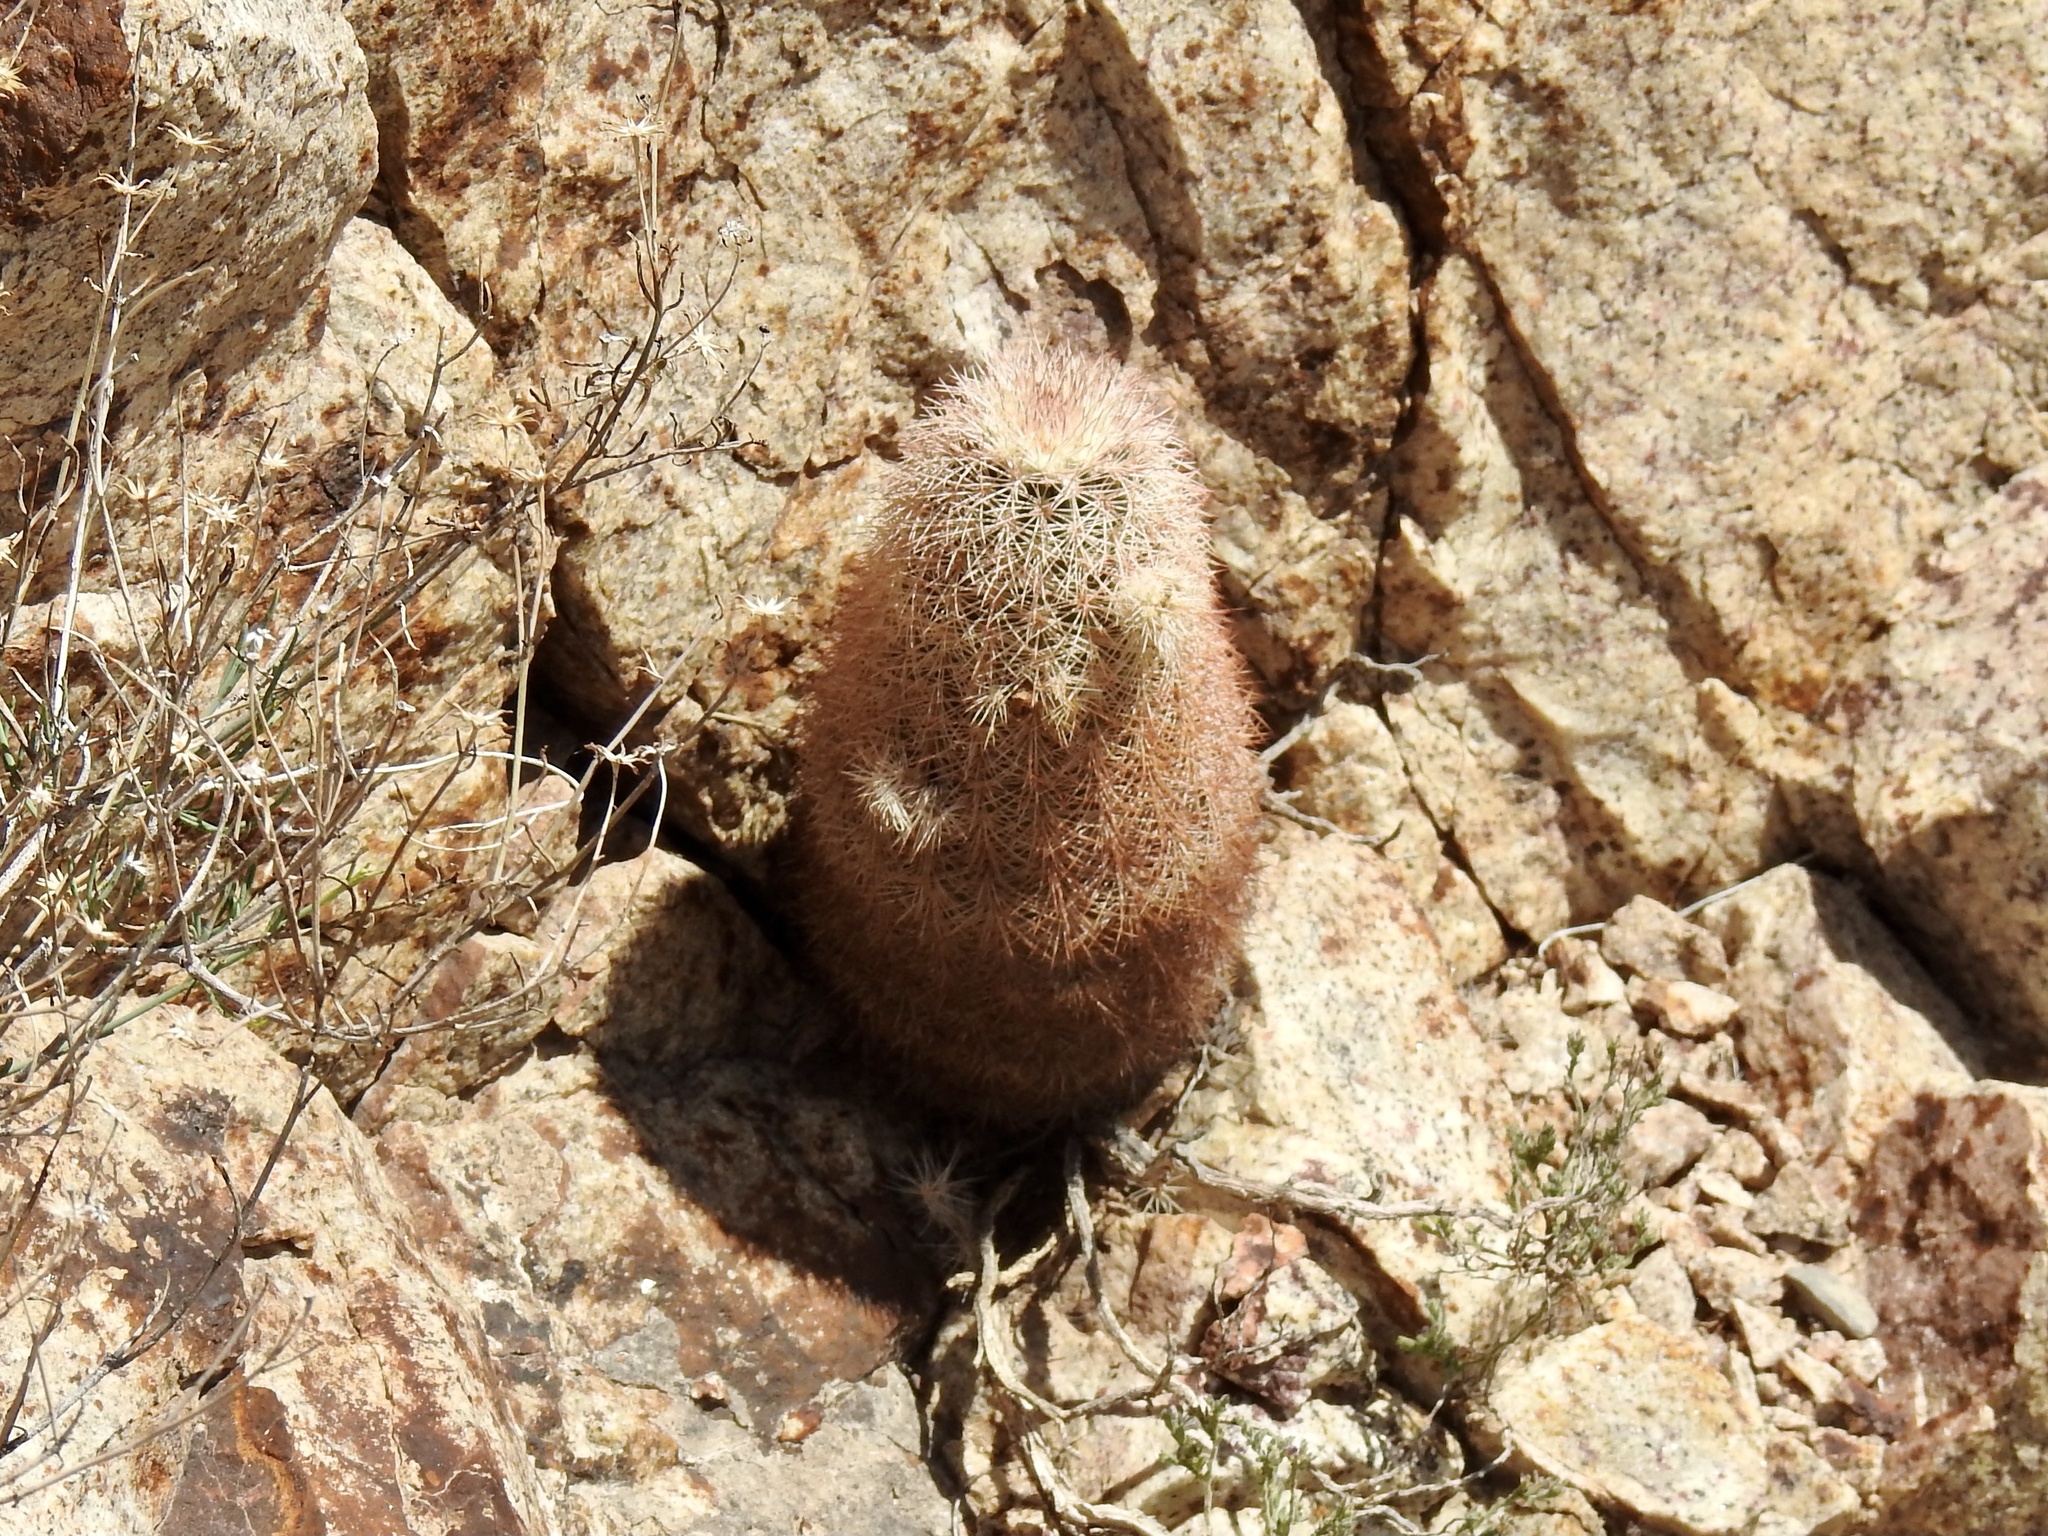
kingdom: Plantae
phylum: Tracheophyta
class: Magnoliopsida
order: Caryophyllales
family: Cactaceae
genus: Echinocereus
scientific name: Echinocereus dasyacanthus
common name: Spiny hedgehog cactus
